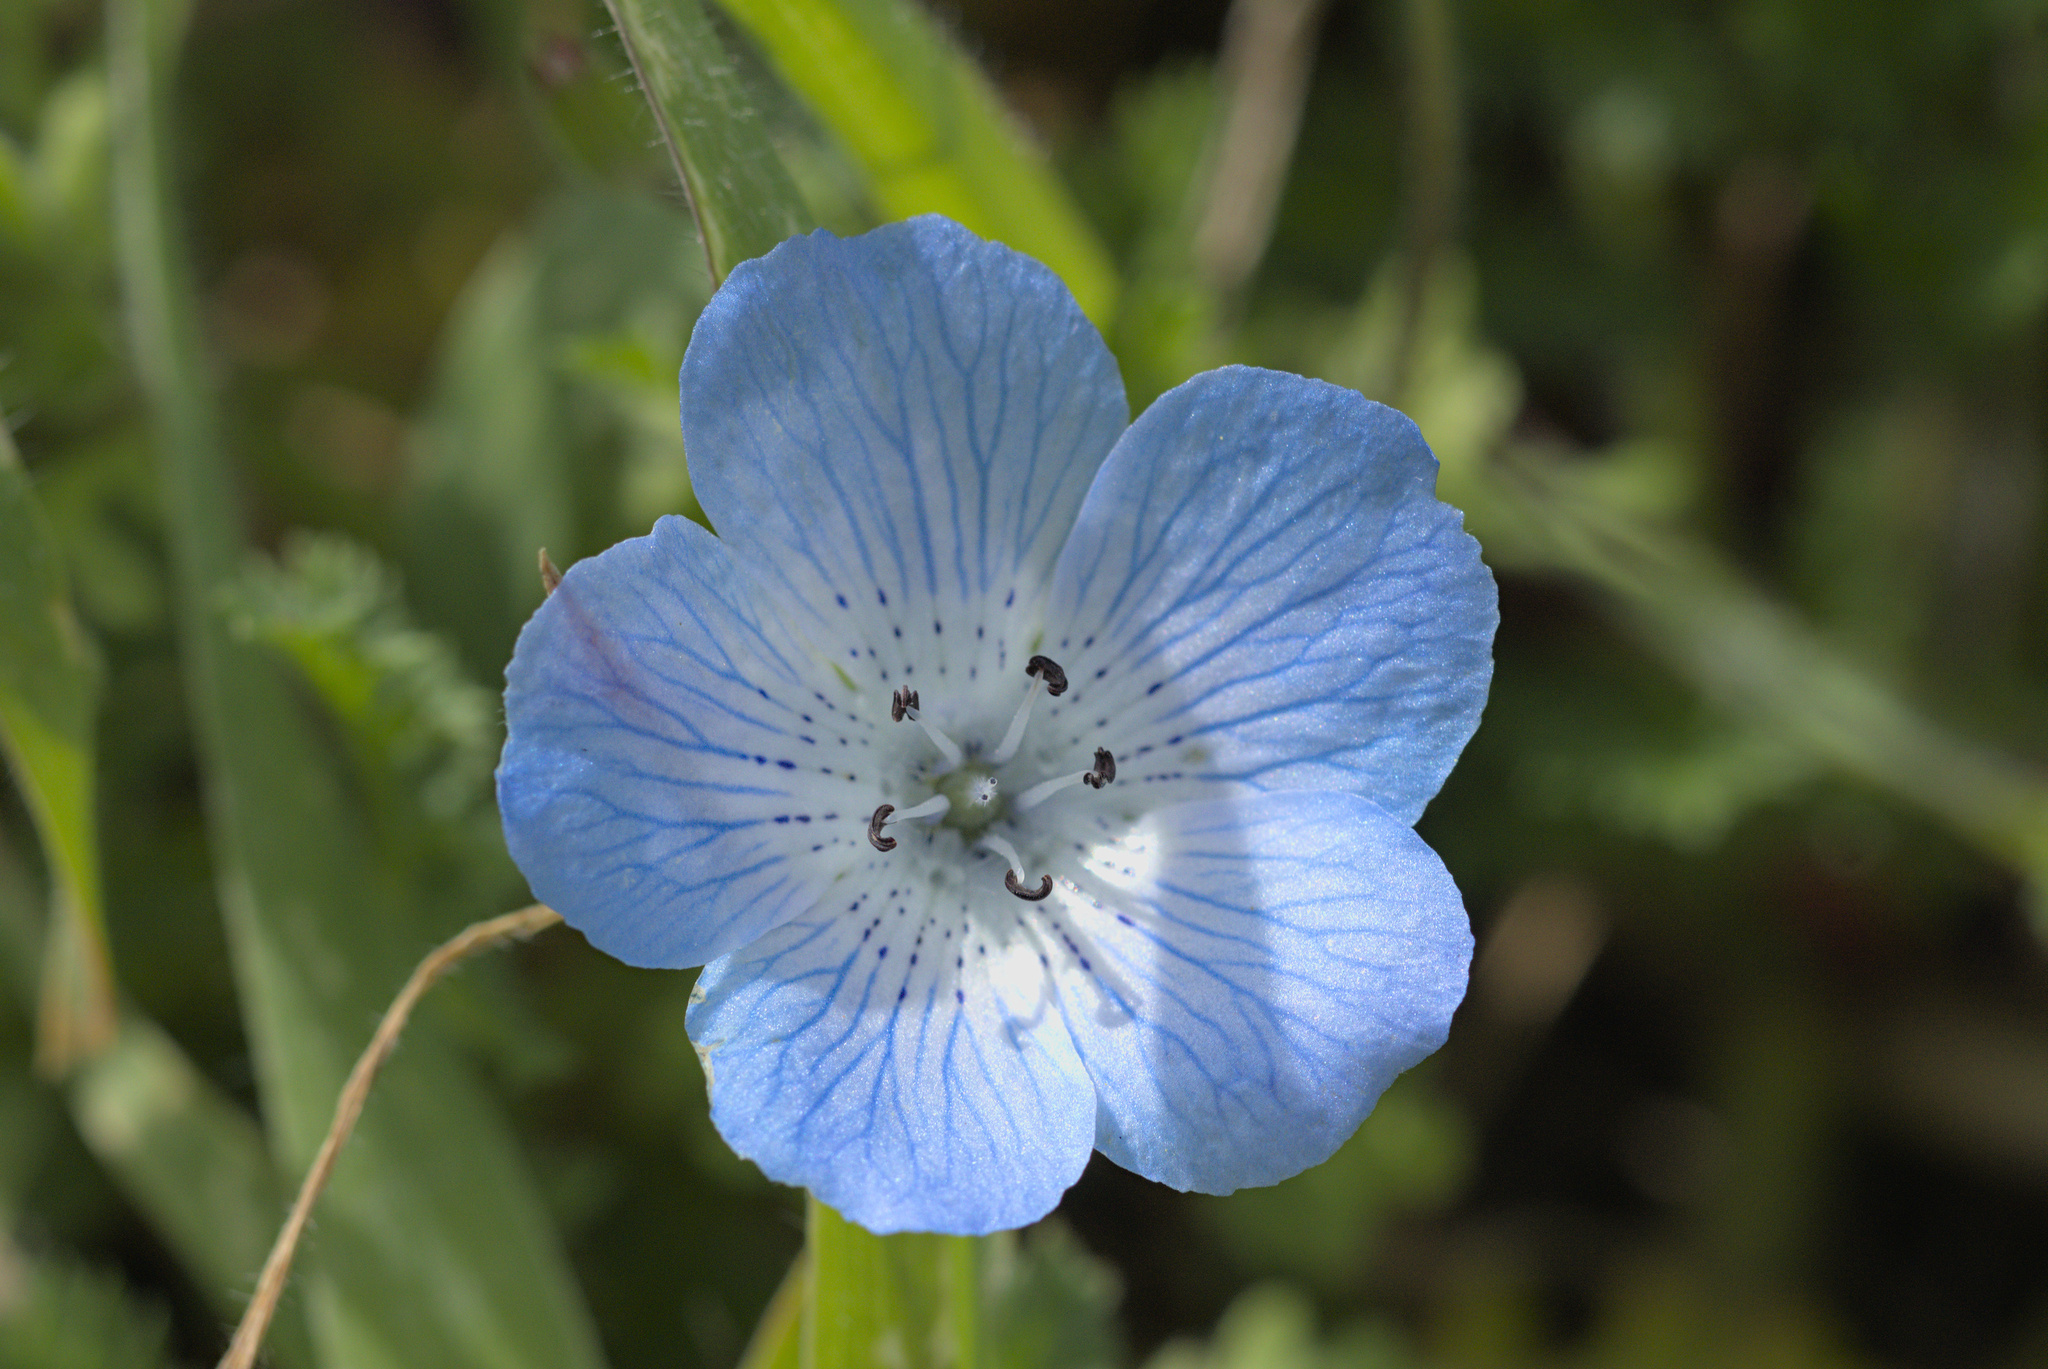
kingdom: Plantae
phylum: Tracheophyta
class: Magnoliopsida
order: Boraginales
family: Hydrophyllaceae
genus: Nemophila
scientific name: Nemophila menziesii
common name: Baby's-blue-eyes
